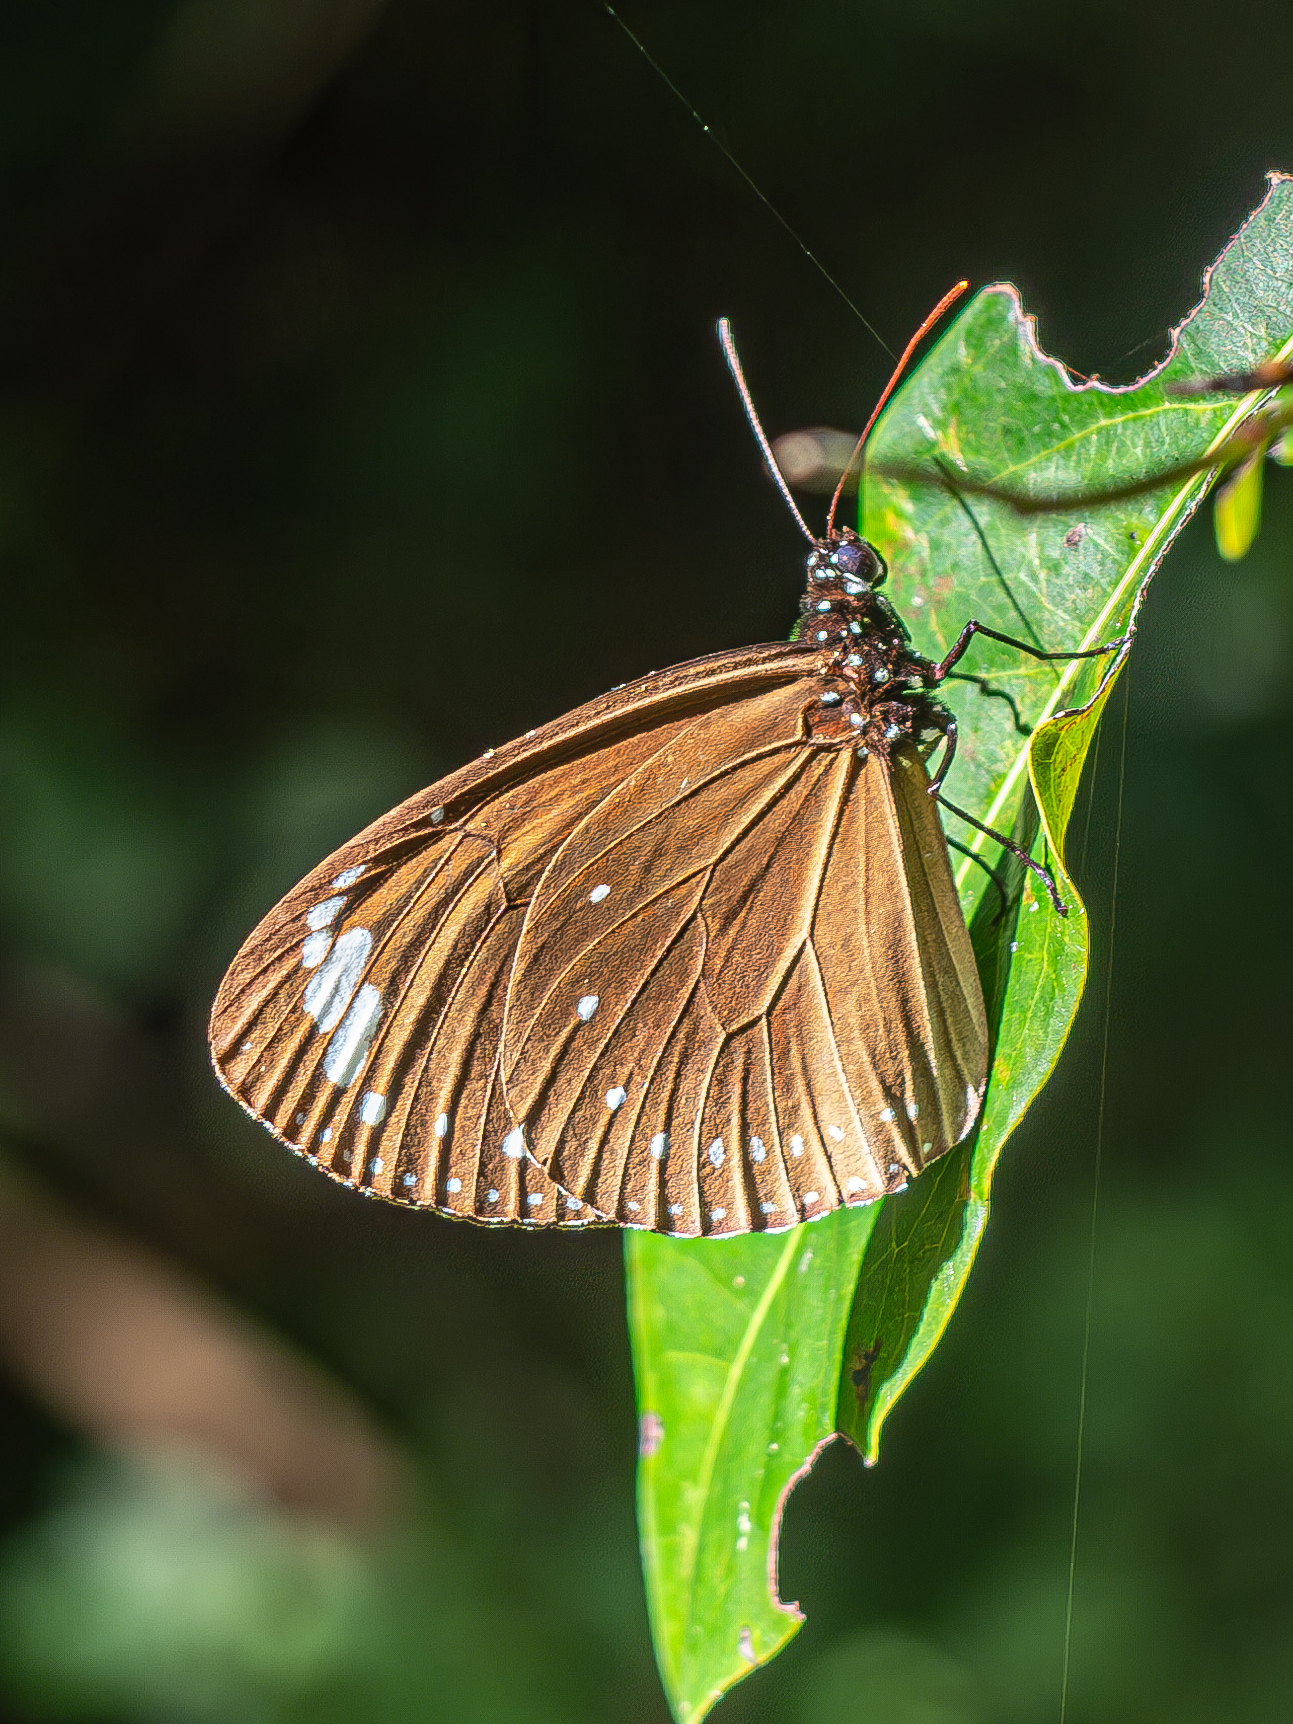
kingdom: Animalia
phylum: Arthropoda
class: Insecta
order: Lepidoptera
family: Nymphalidae
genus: Euploea
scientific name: Euploea tulliolus
